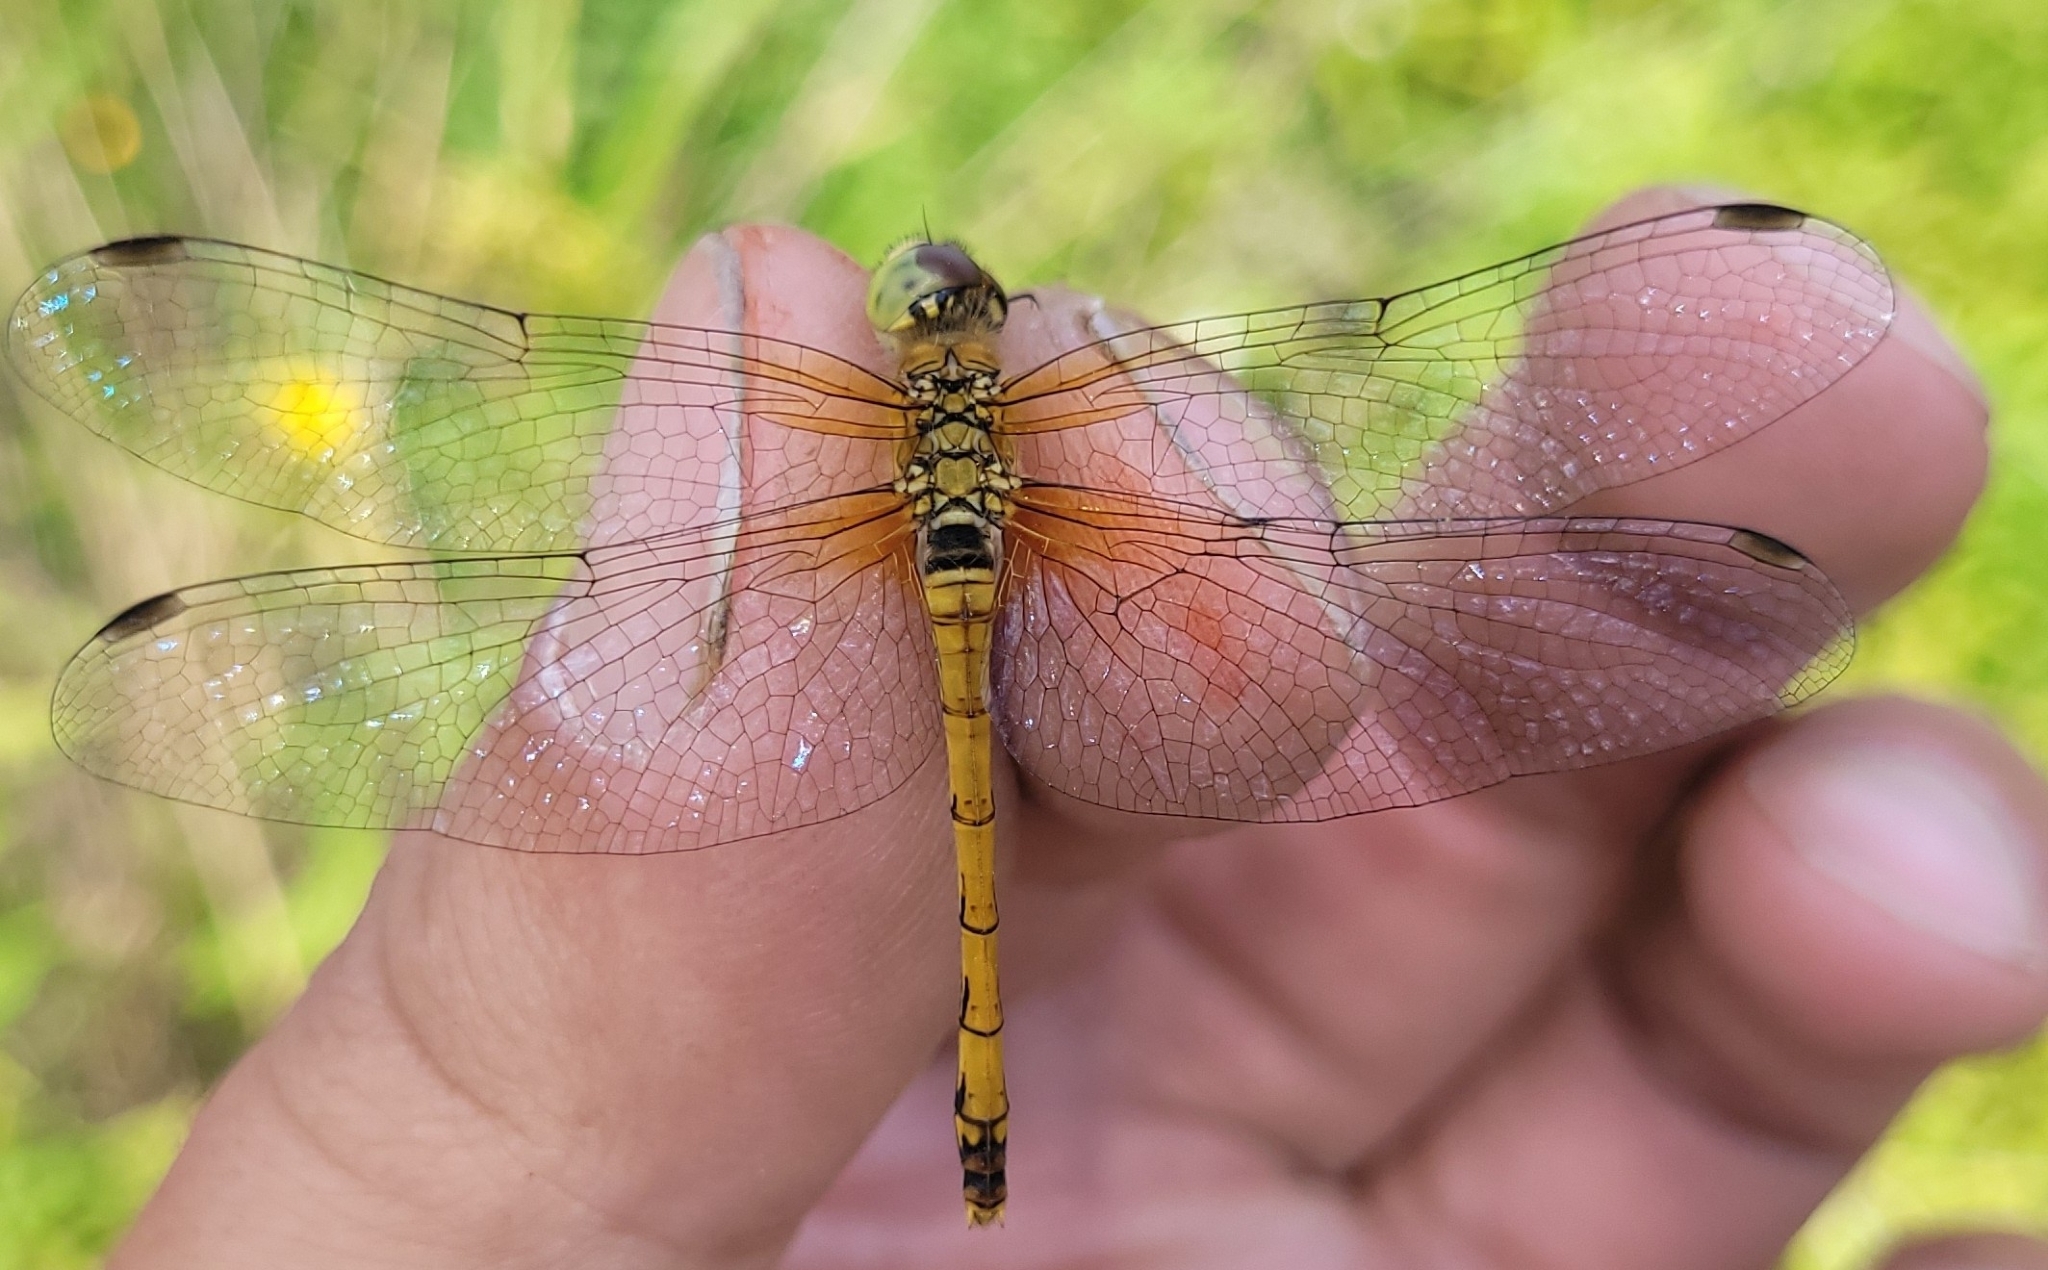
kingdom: Animalia
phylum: Arthropoda
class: Insecta
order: Odonata
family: Libellulidae
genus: Sympetrum
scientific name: Sympetrum cordulegaster
